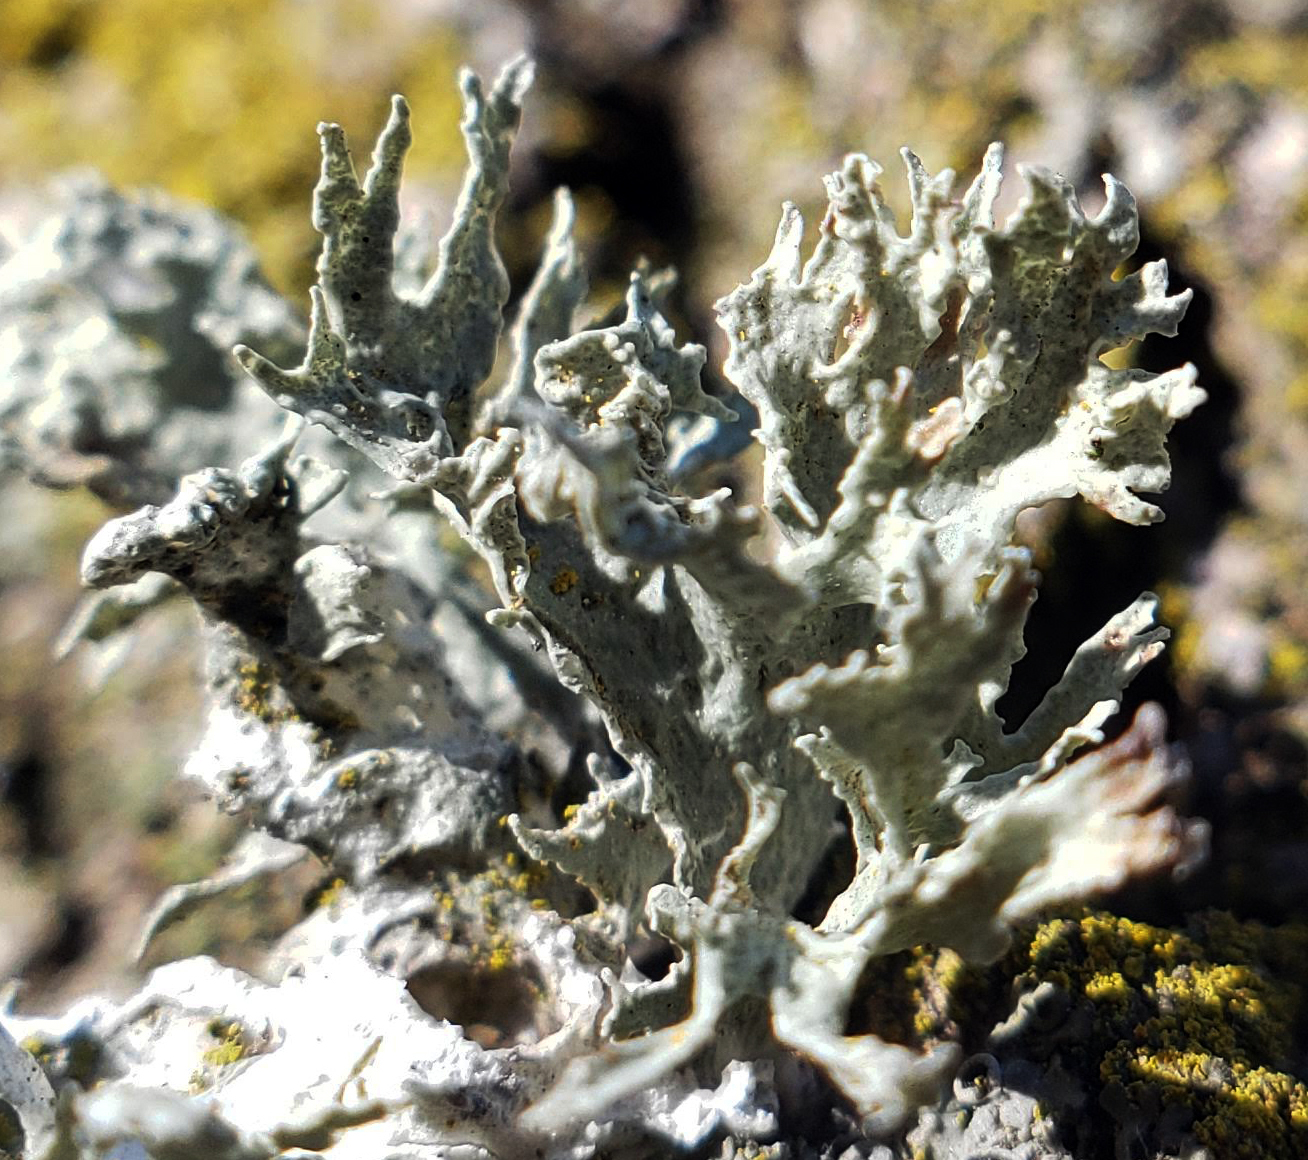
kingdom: Fungi
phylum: Ascomycota
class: Lecanoromycetes
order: Lecanorales
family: Ramalinaceae
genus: Ramalina
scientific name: Ramalina americana
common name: Sinewed bush lichen
